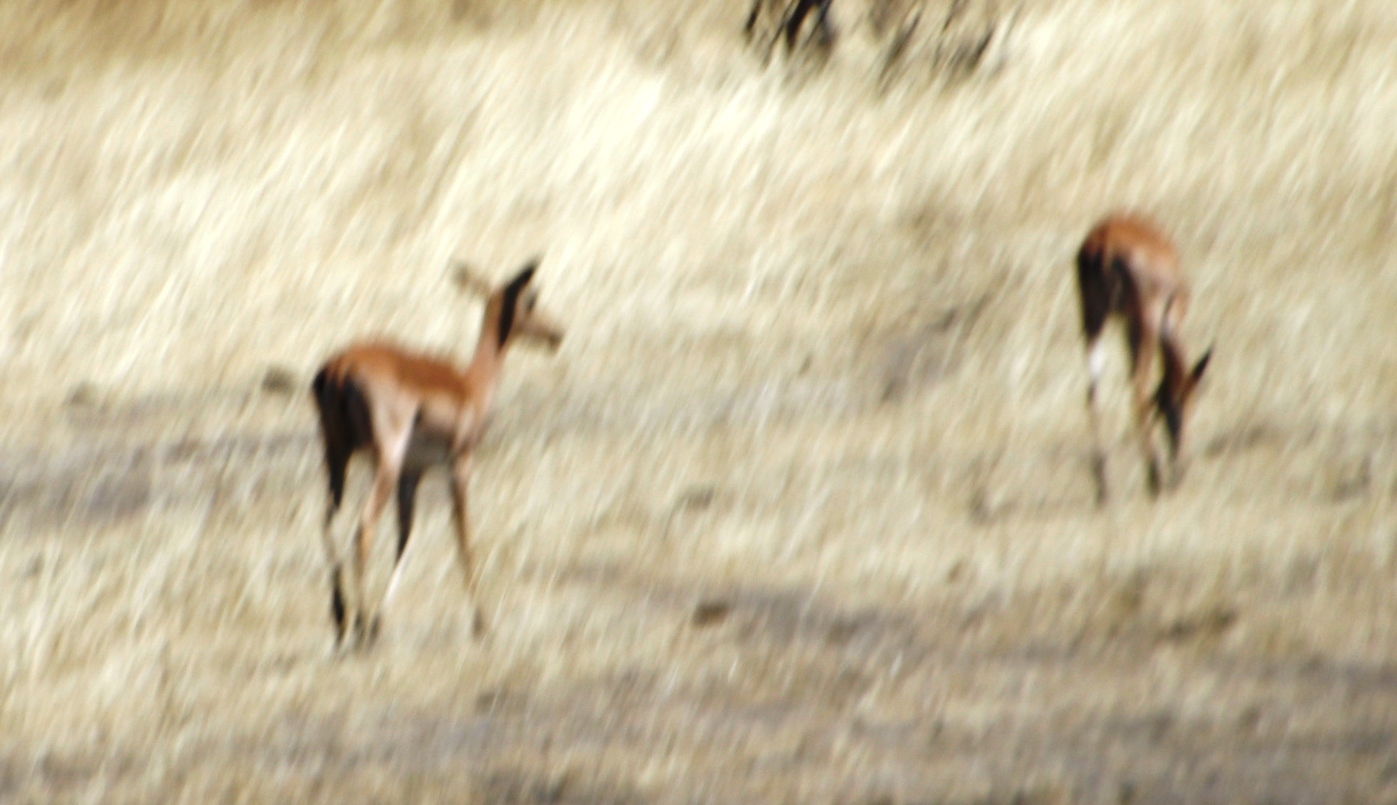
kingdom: Animalia
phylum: Chordata
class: Mammalia
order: Artiodactyla
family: Bovidae
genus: Aepyceros
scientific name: Aepyceros melampus
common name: Impala
